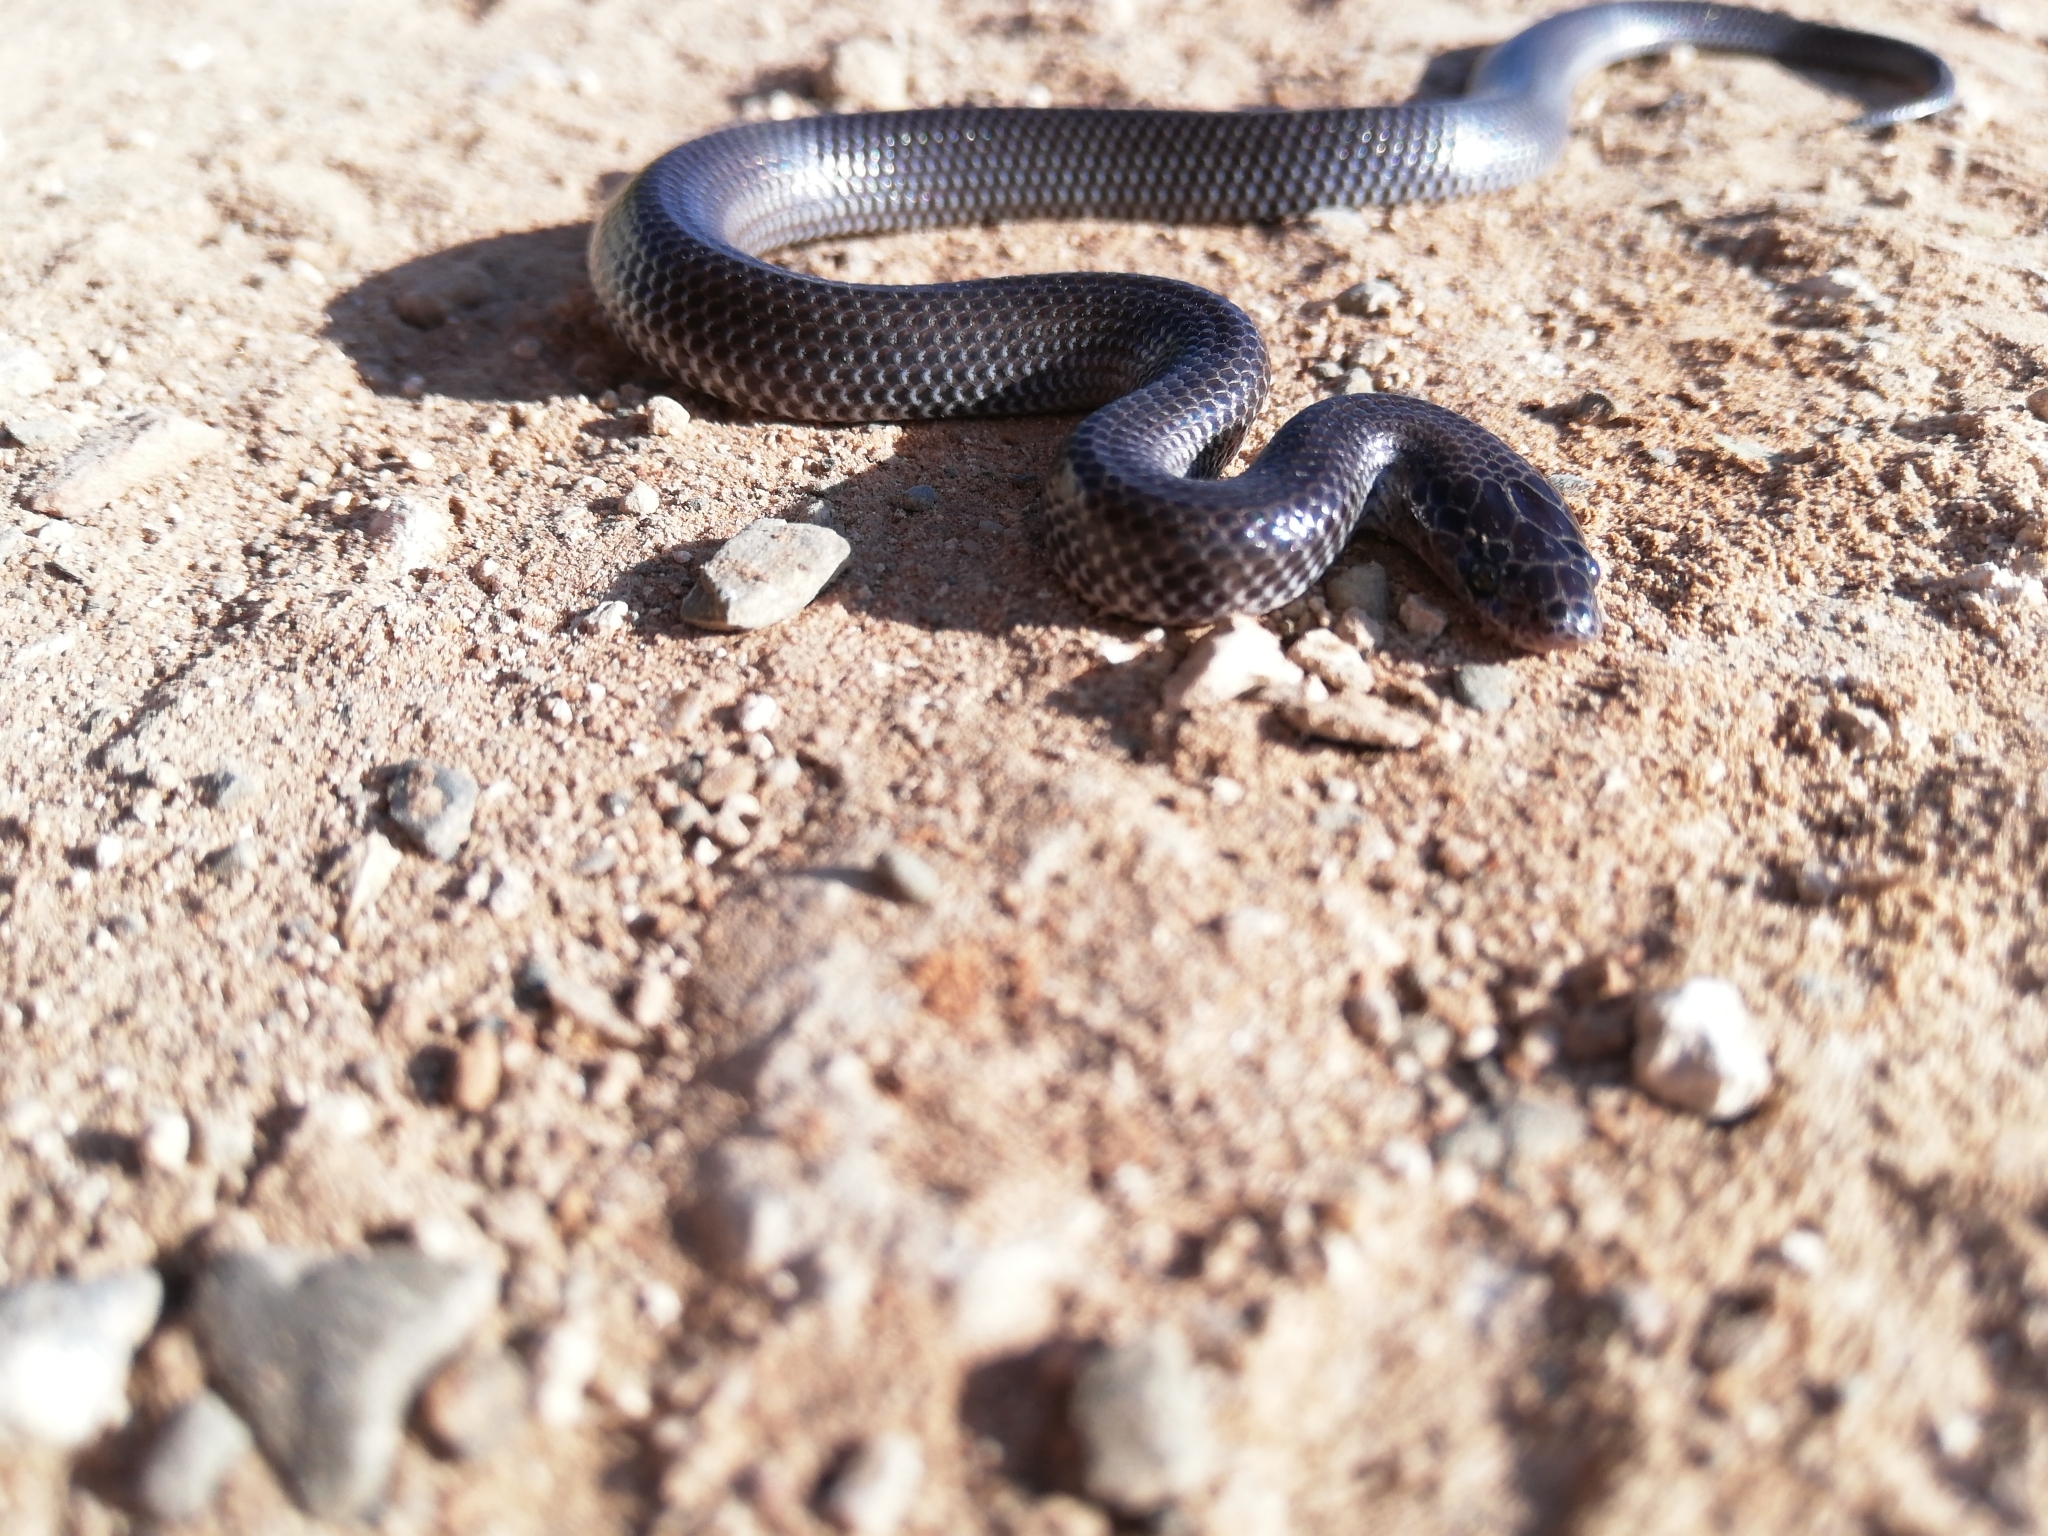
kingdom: Animalia
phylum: Chordata
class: Squamata
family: Lamprophiidae
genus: Lycophidion
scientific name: Lycophidion capense
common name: Cape wolf snake
